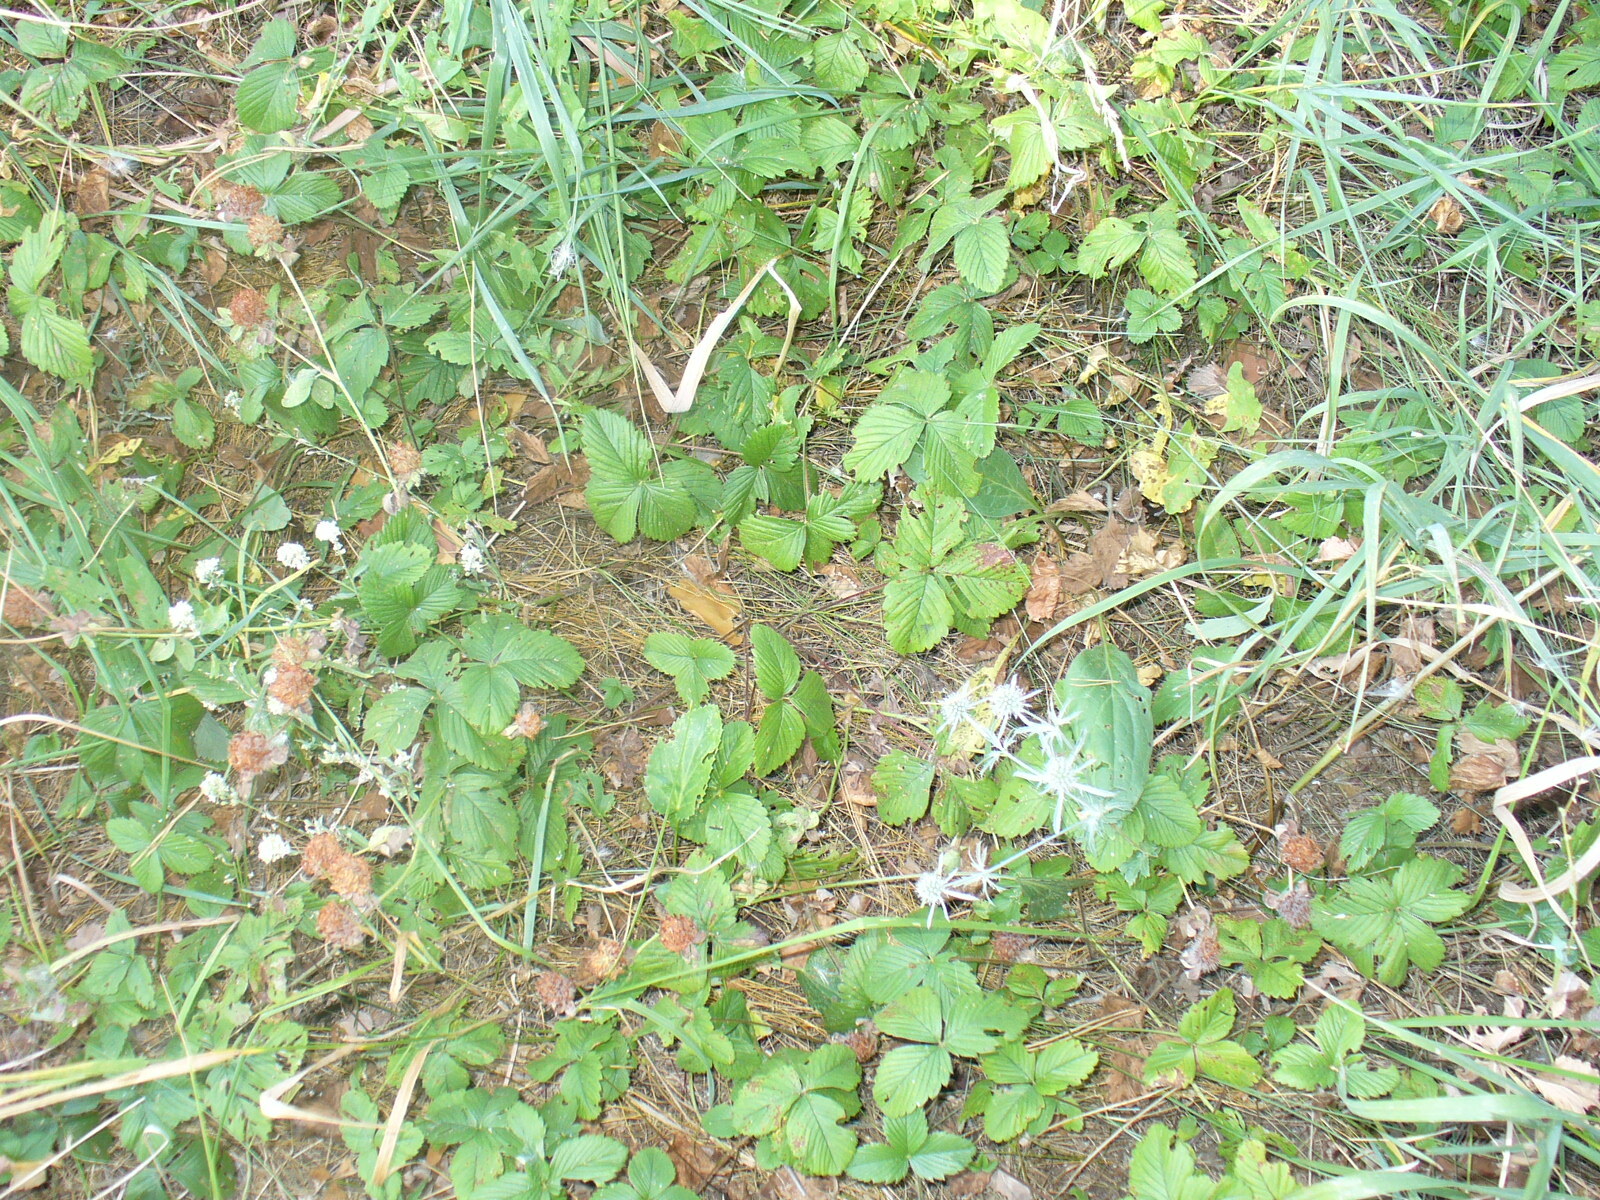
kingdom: Plantae
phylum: Tracheophyta
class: Magnoliopsida
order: Rosales
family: Rosaceae
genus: Fragaria
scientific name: Fragaria viridis
